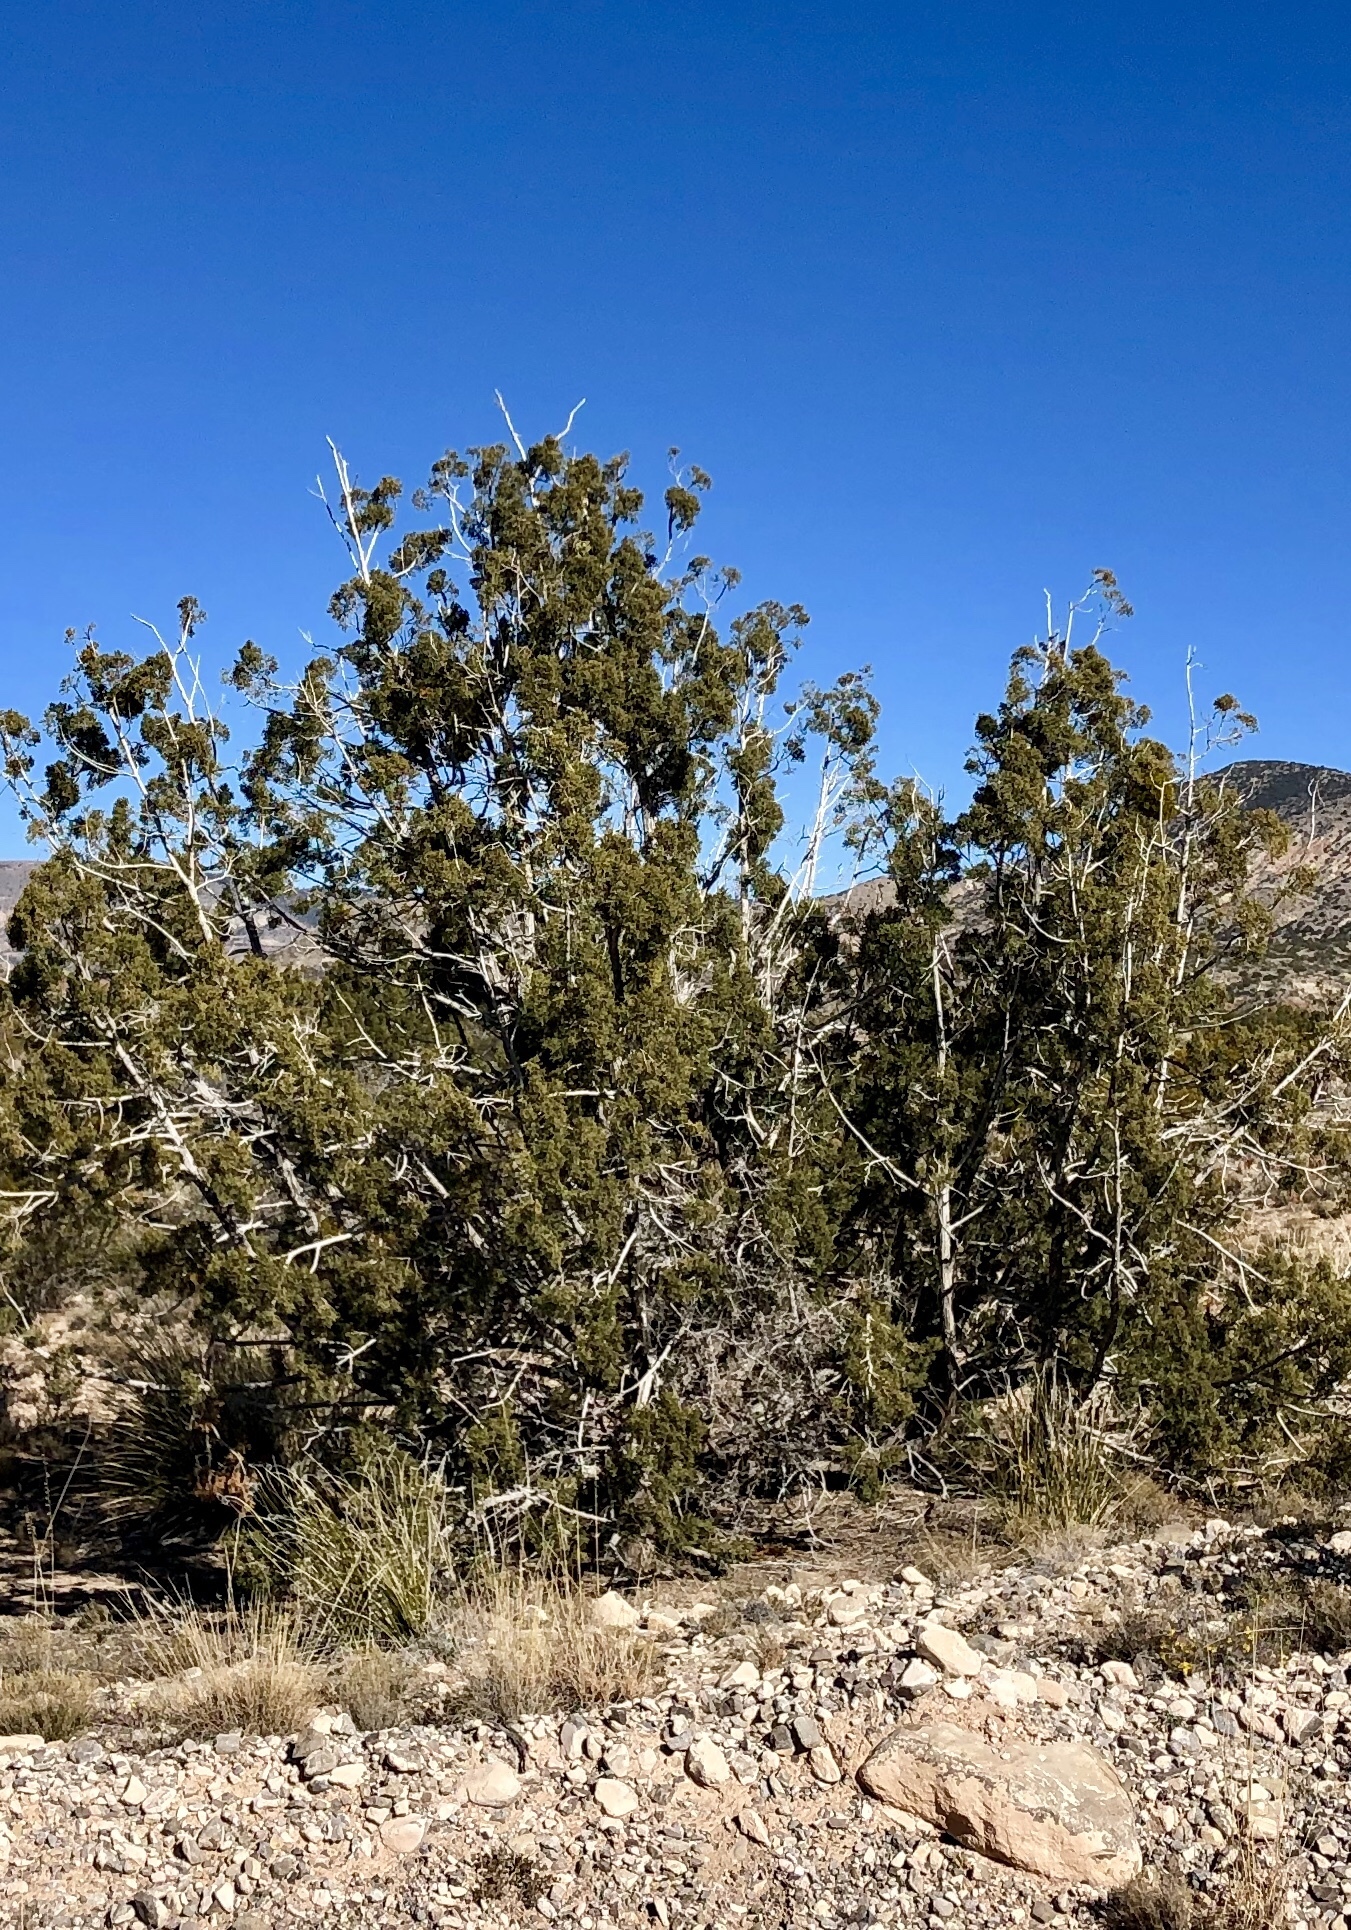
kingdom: Plantae
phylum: Tracheophyta
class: Pinopsida
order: Pinales
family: Cupressaceae
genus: Juniperus
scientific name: Juniperus monosperma
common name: One-seed juniper
